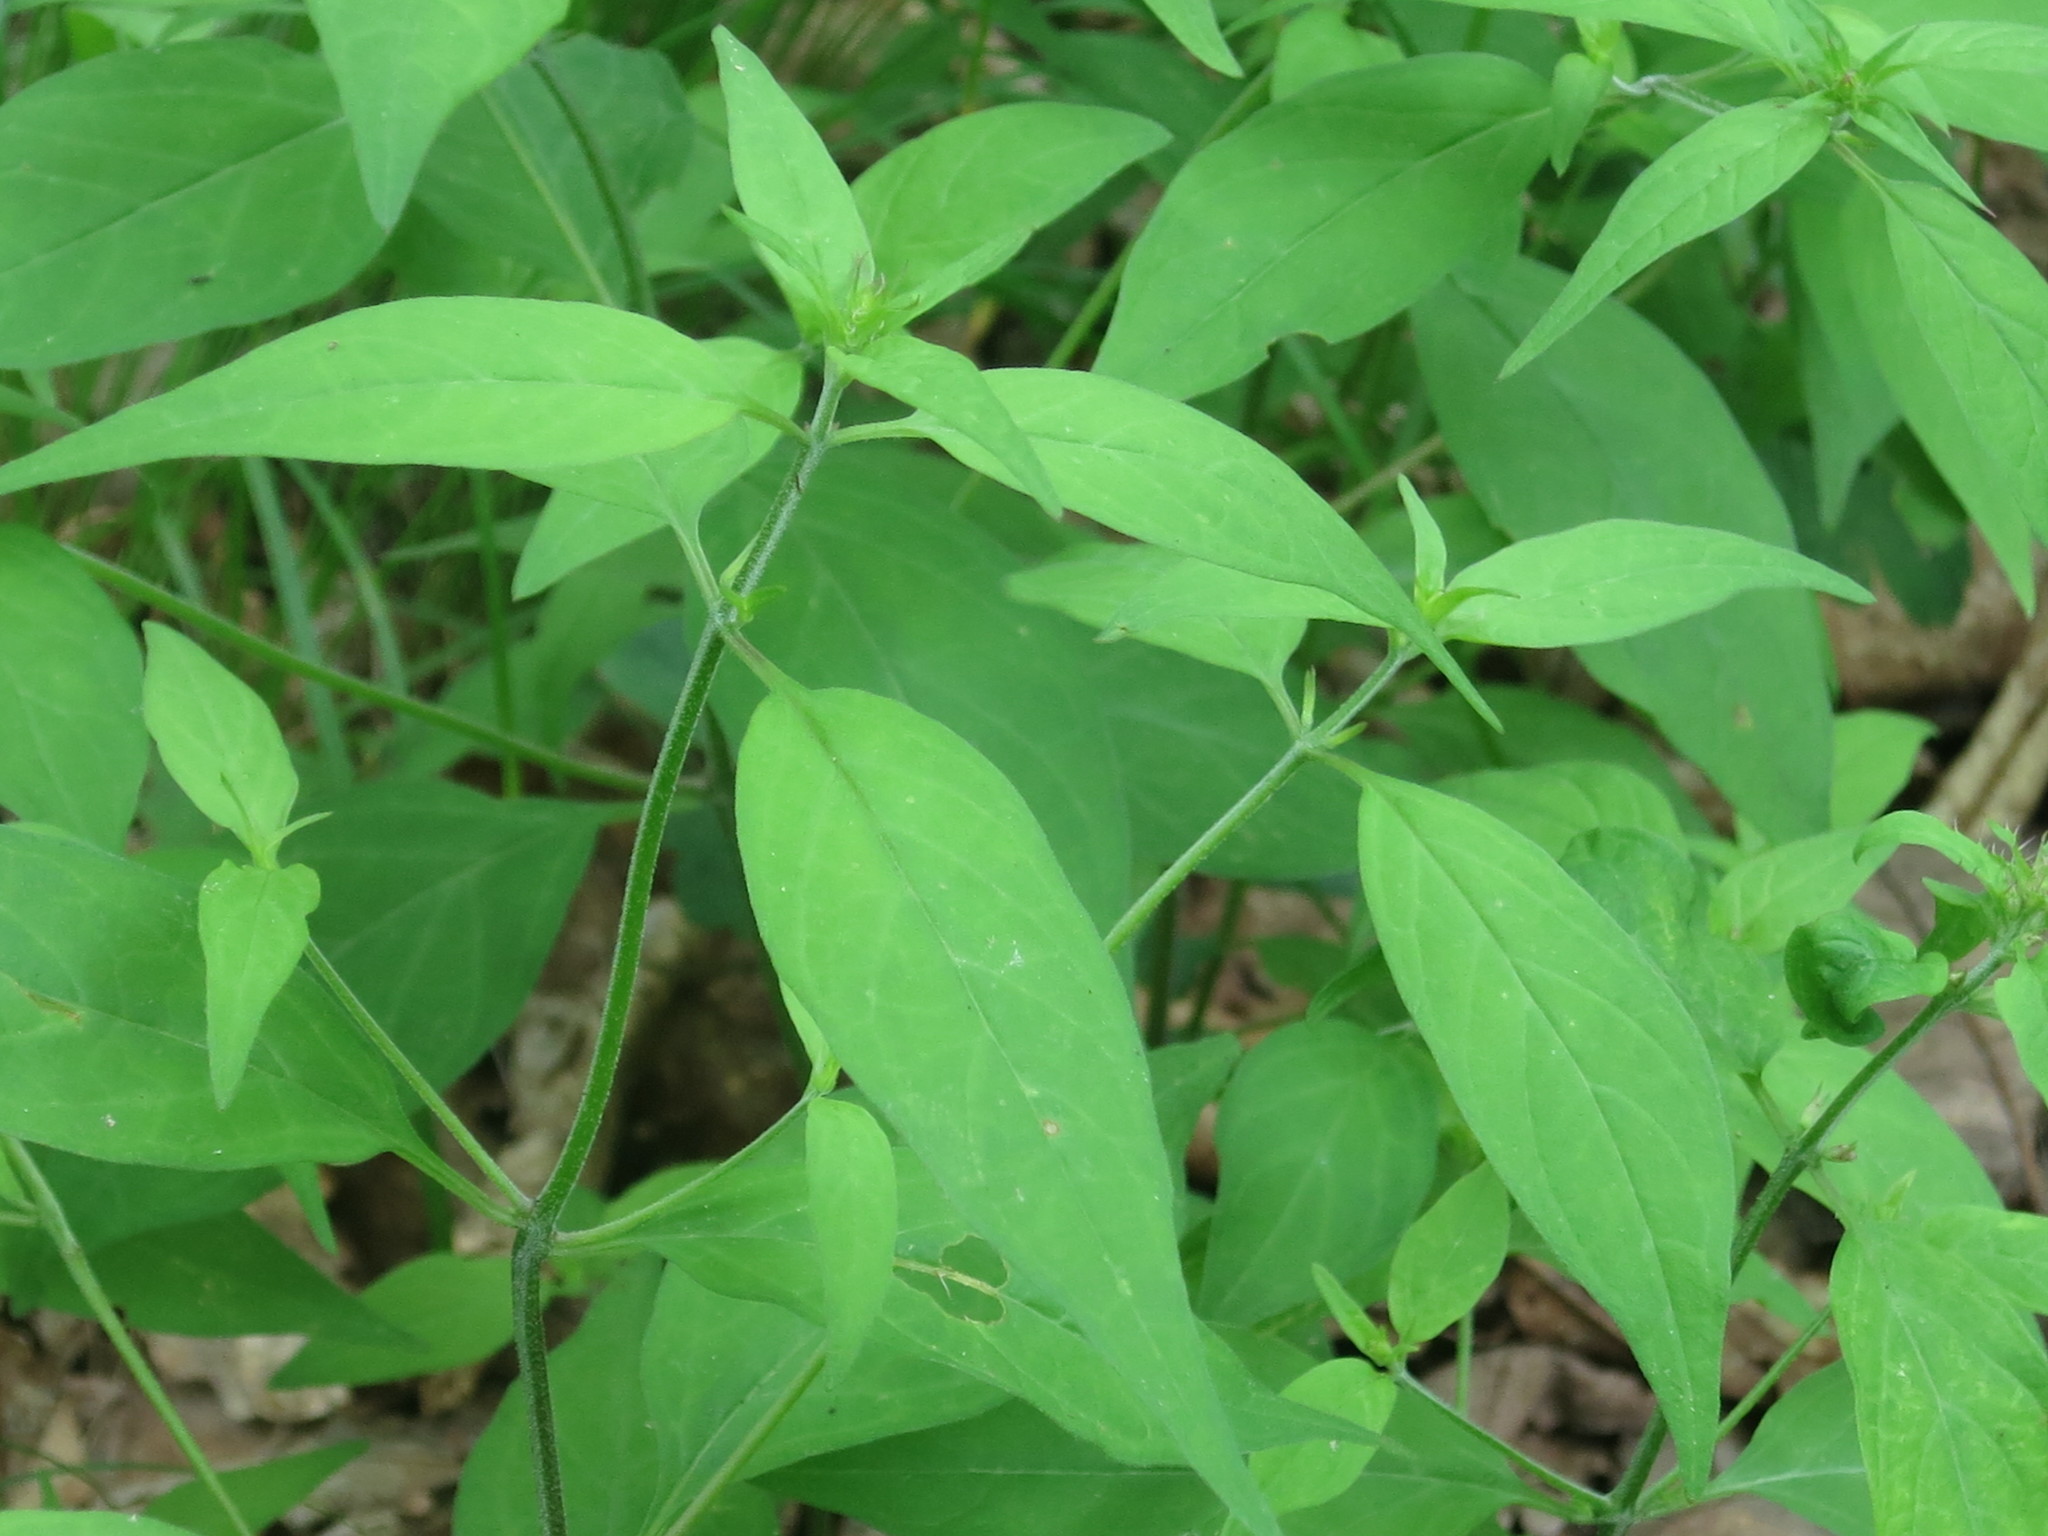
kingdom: Plantae
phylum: Tracheophyta
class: Magnoliopsida
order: Lamiales
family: Orobanchaceae
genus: Melampyrum
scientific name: Melampyrum roseum
